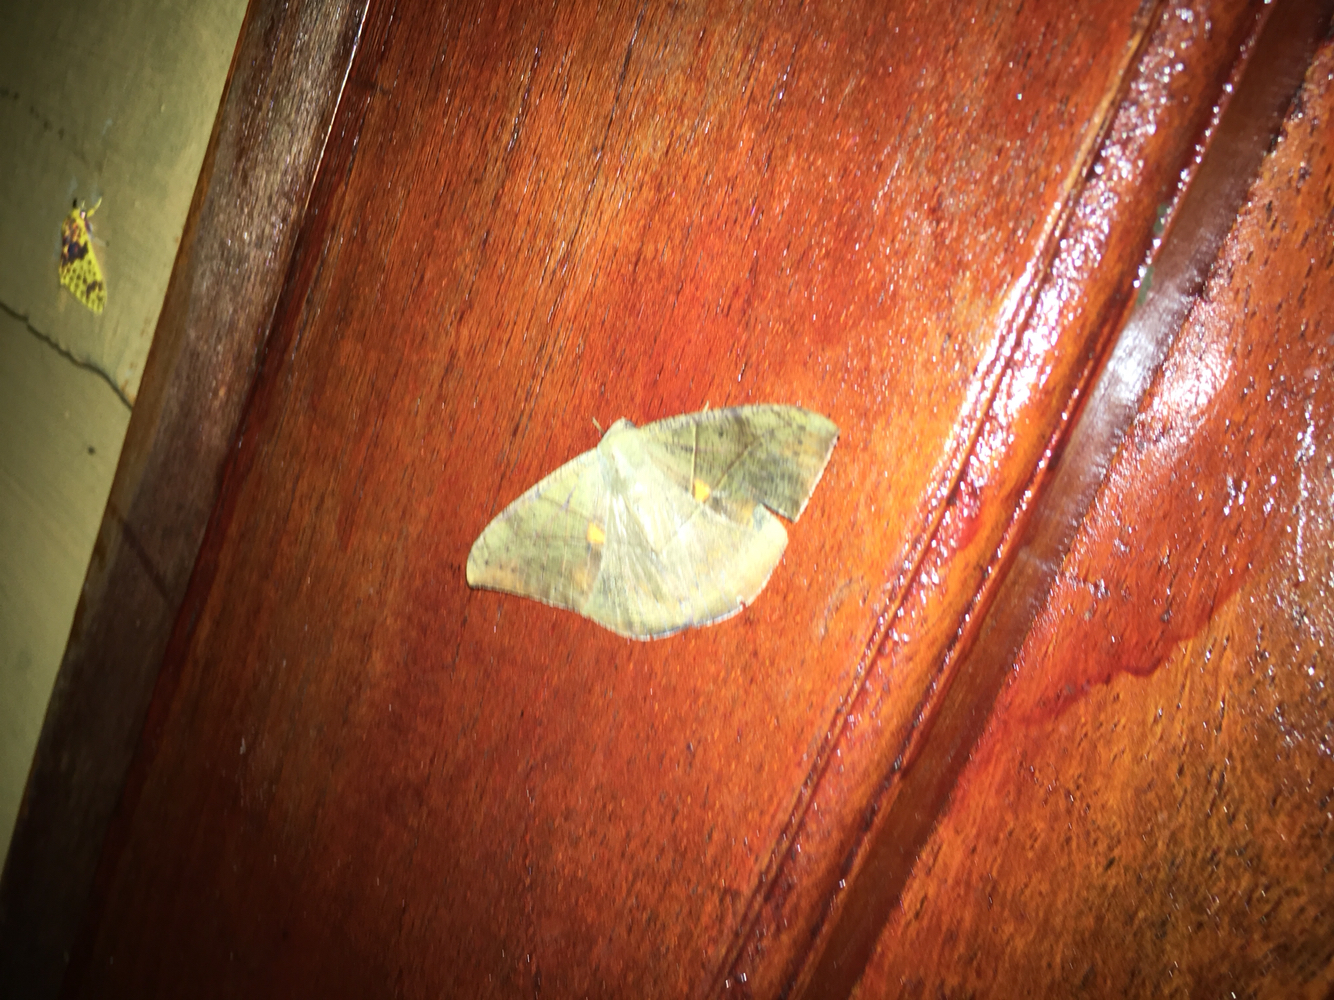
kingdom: Animalia
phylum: Arthropoda
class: Insecta
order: Lepidoptera
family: Geometridae
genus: Oxydia
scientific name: Oxydia trychiata
